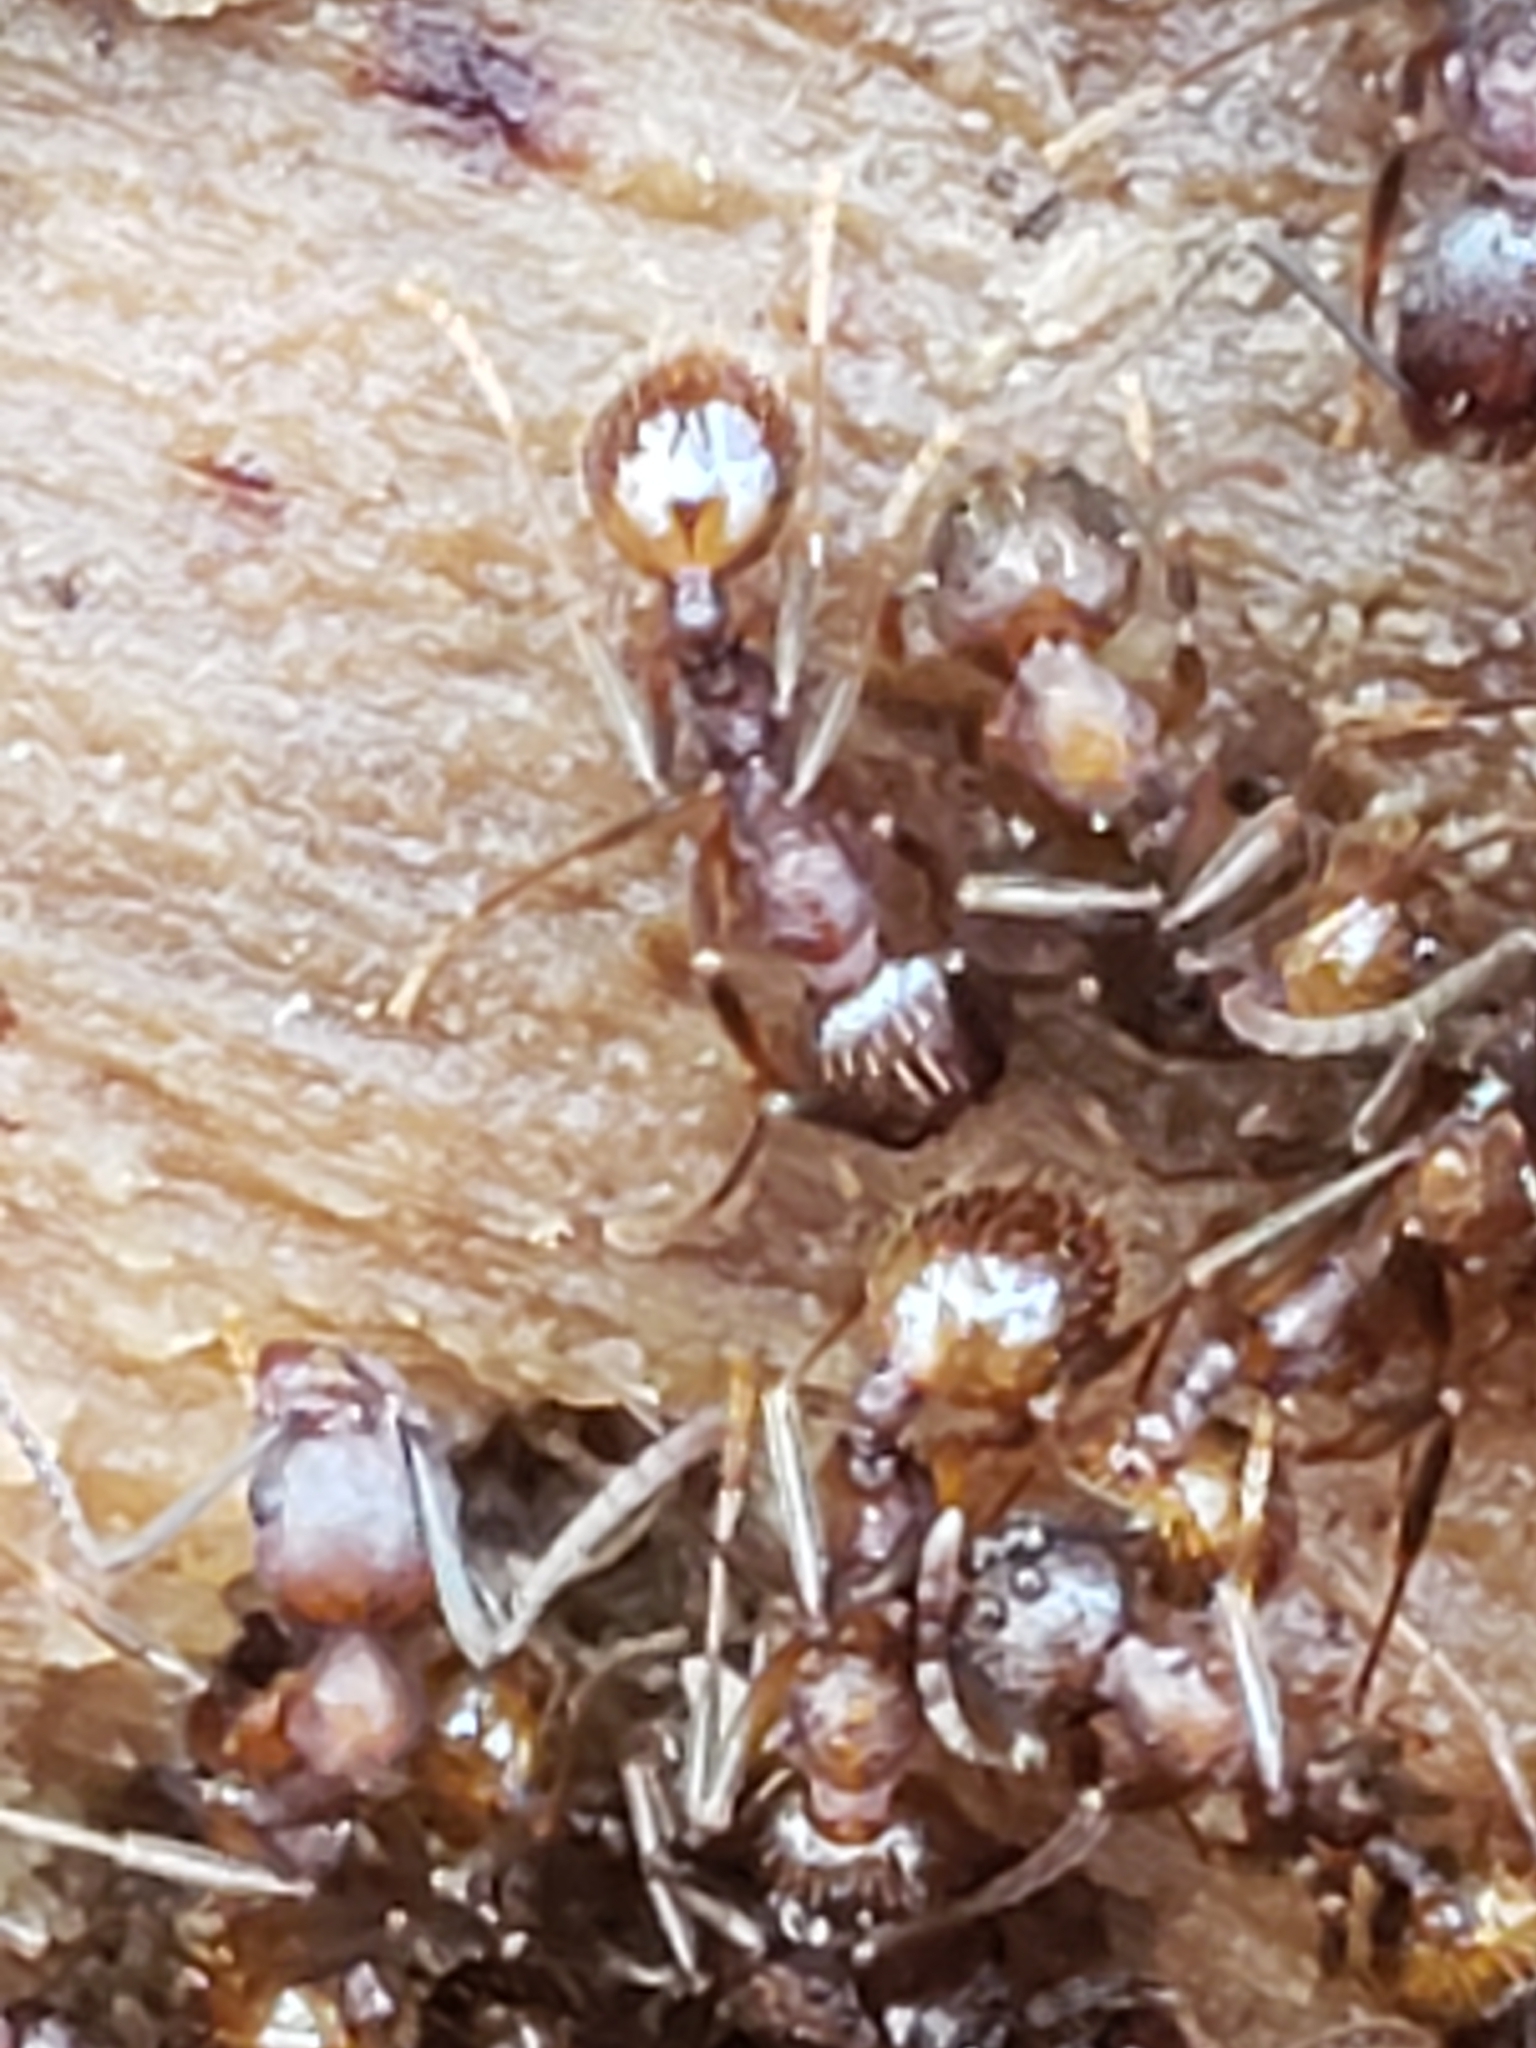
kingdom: Animalia
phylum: Arthropoda
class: Insecta
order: Hymenoptera
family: Formicidae
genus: Aphaenogaster
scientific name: Aphaenogaster fulva
